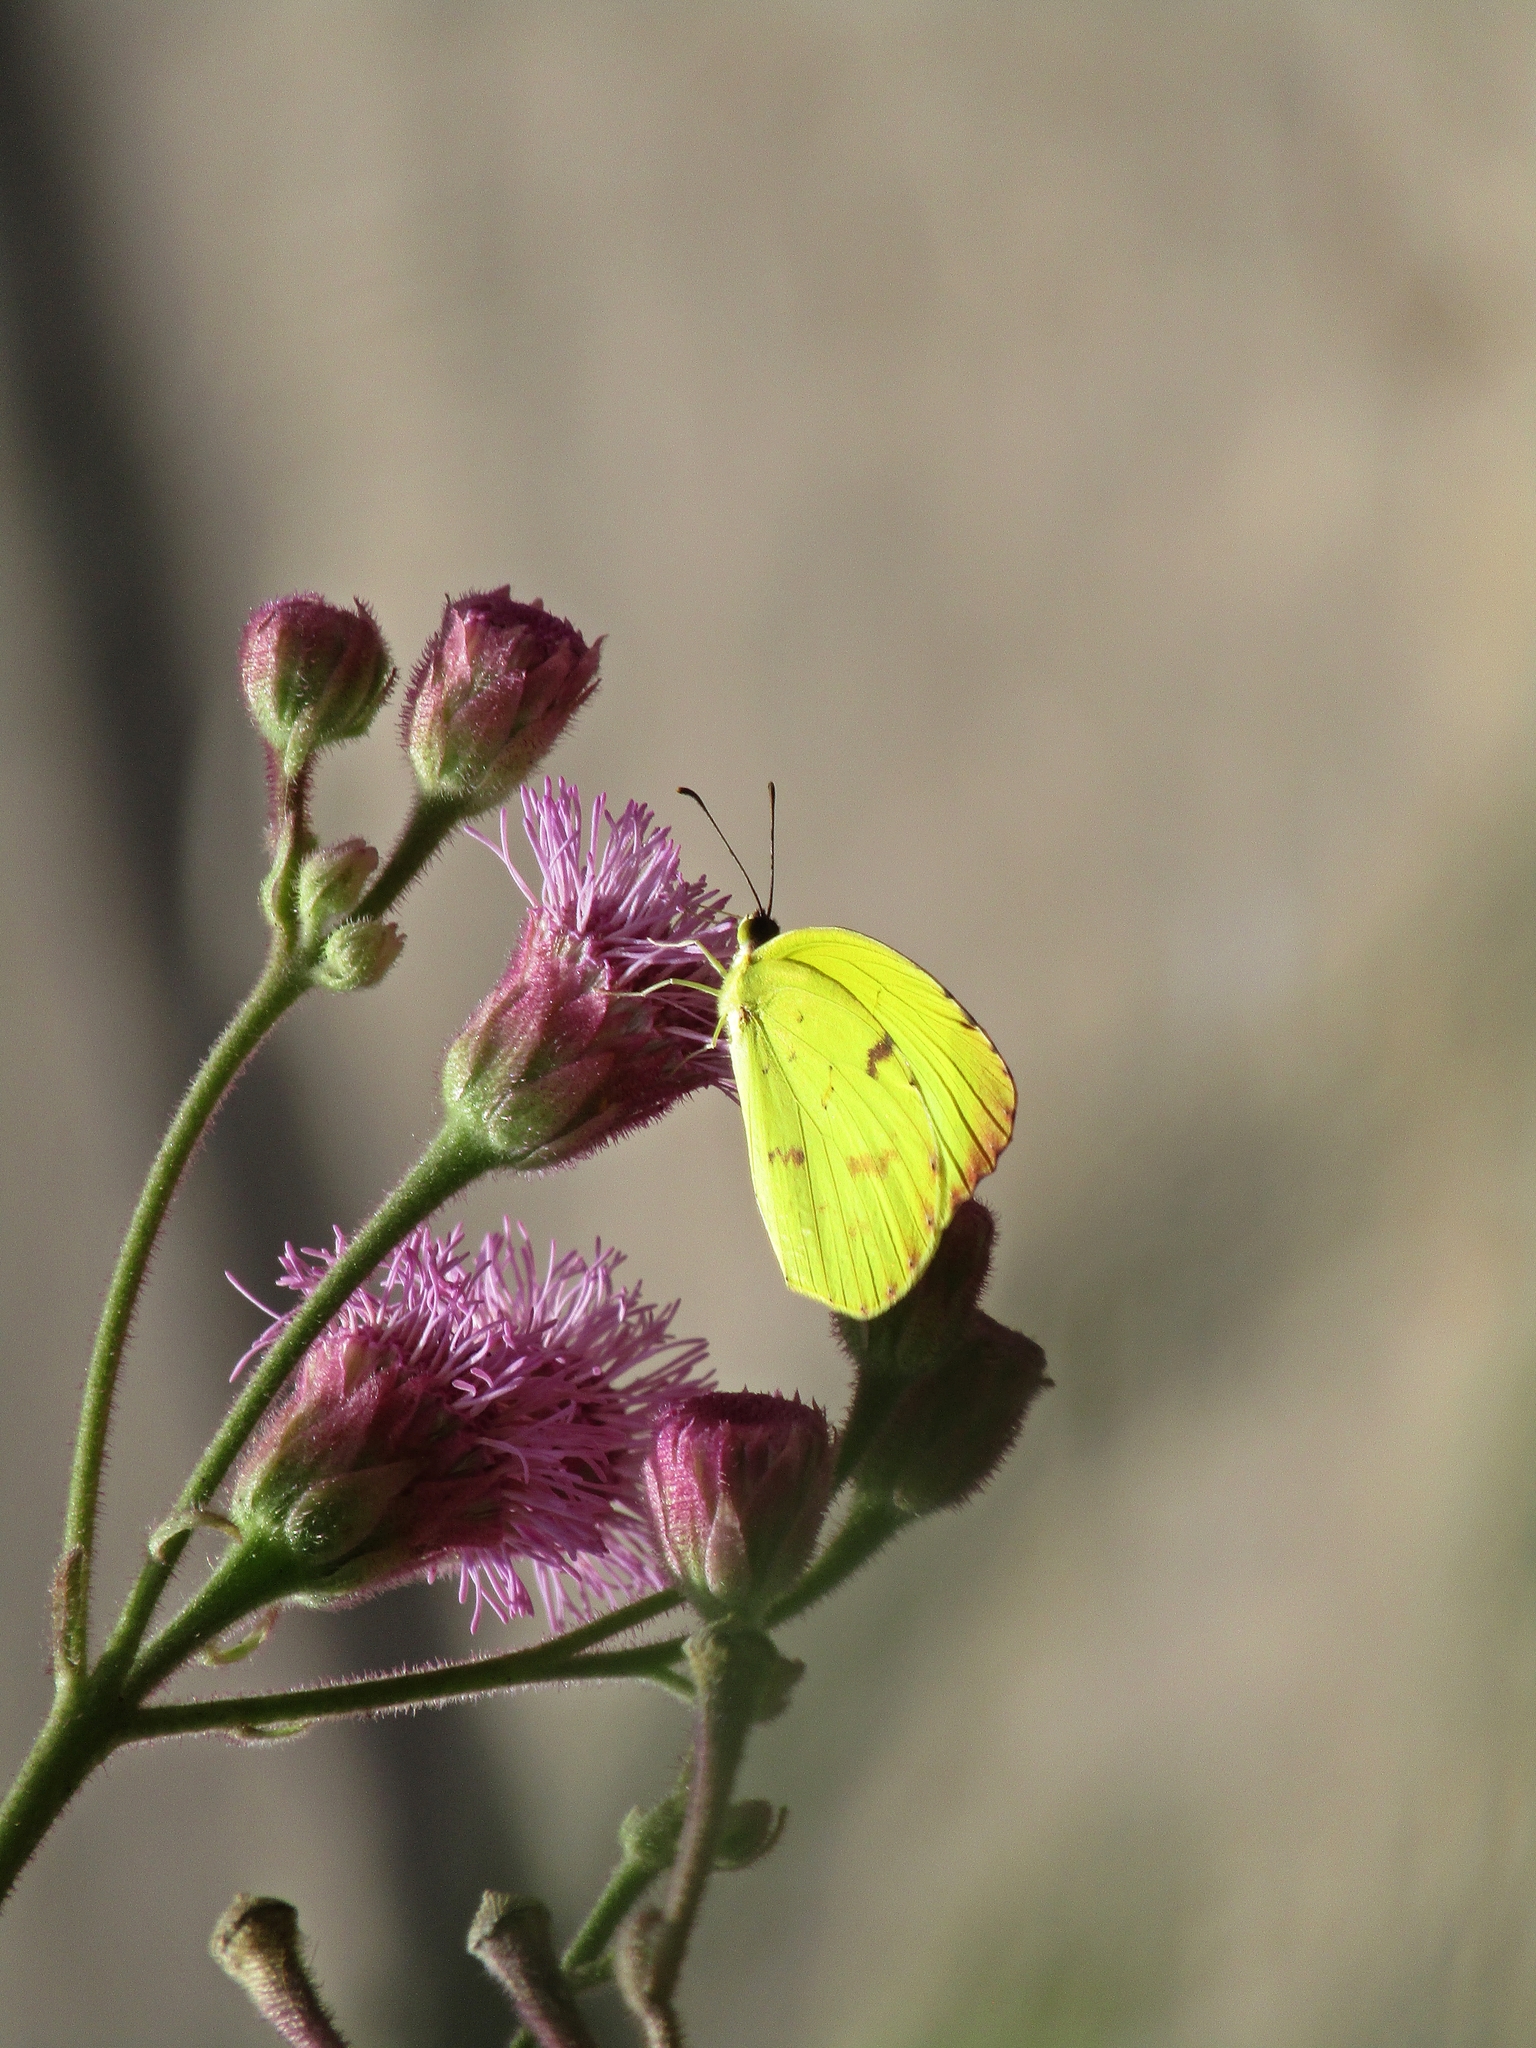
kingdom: Animalia
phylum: Arthropoda
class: Insecta
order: Lepidoptera
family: Pieridae
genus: Teriocolias
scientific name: Teriocolias
